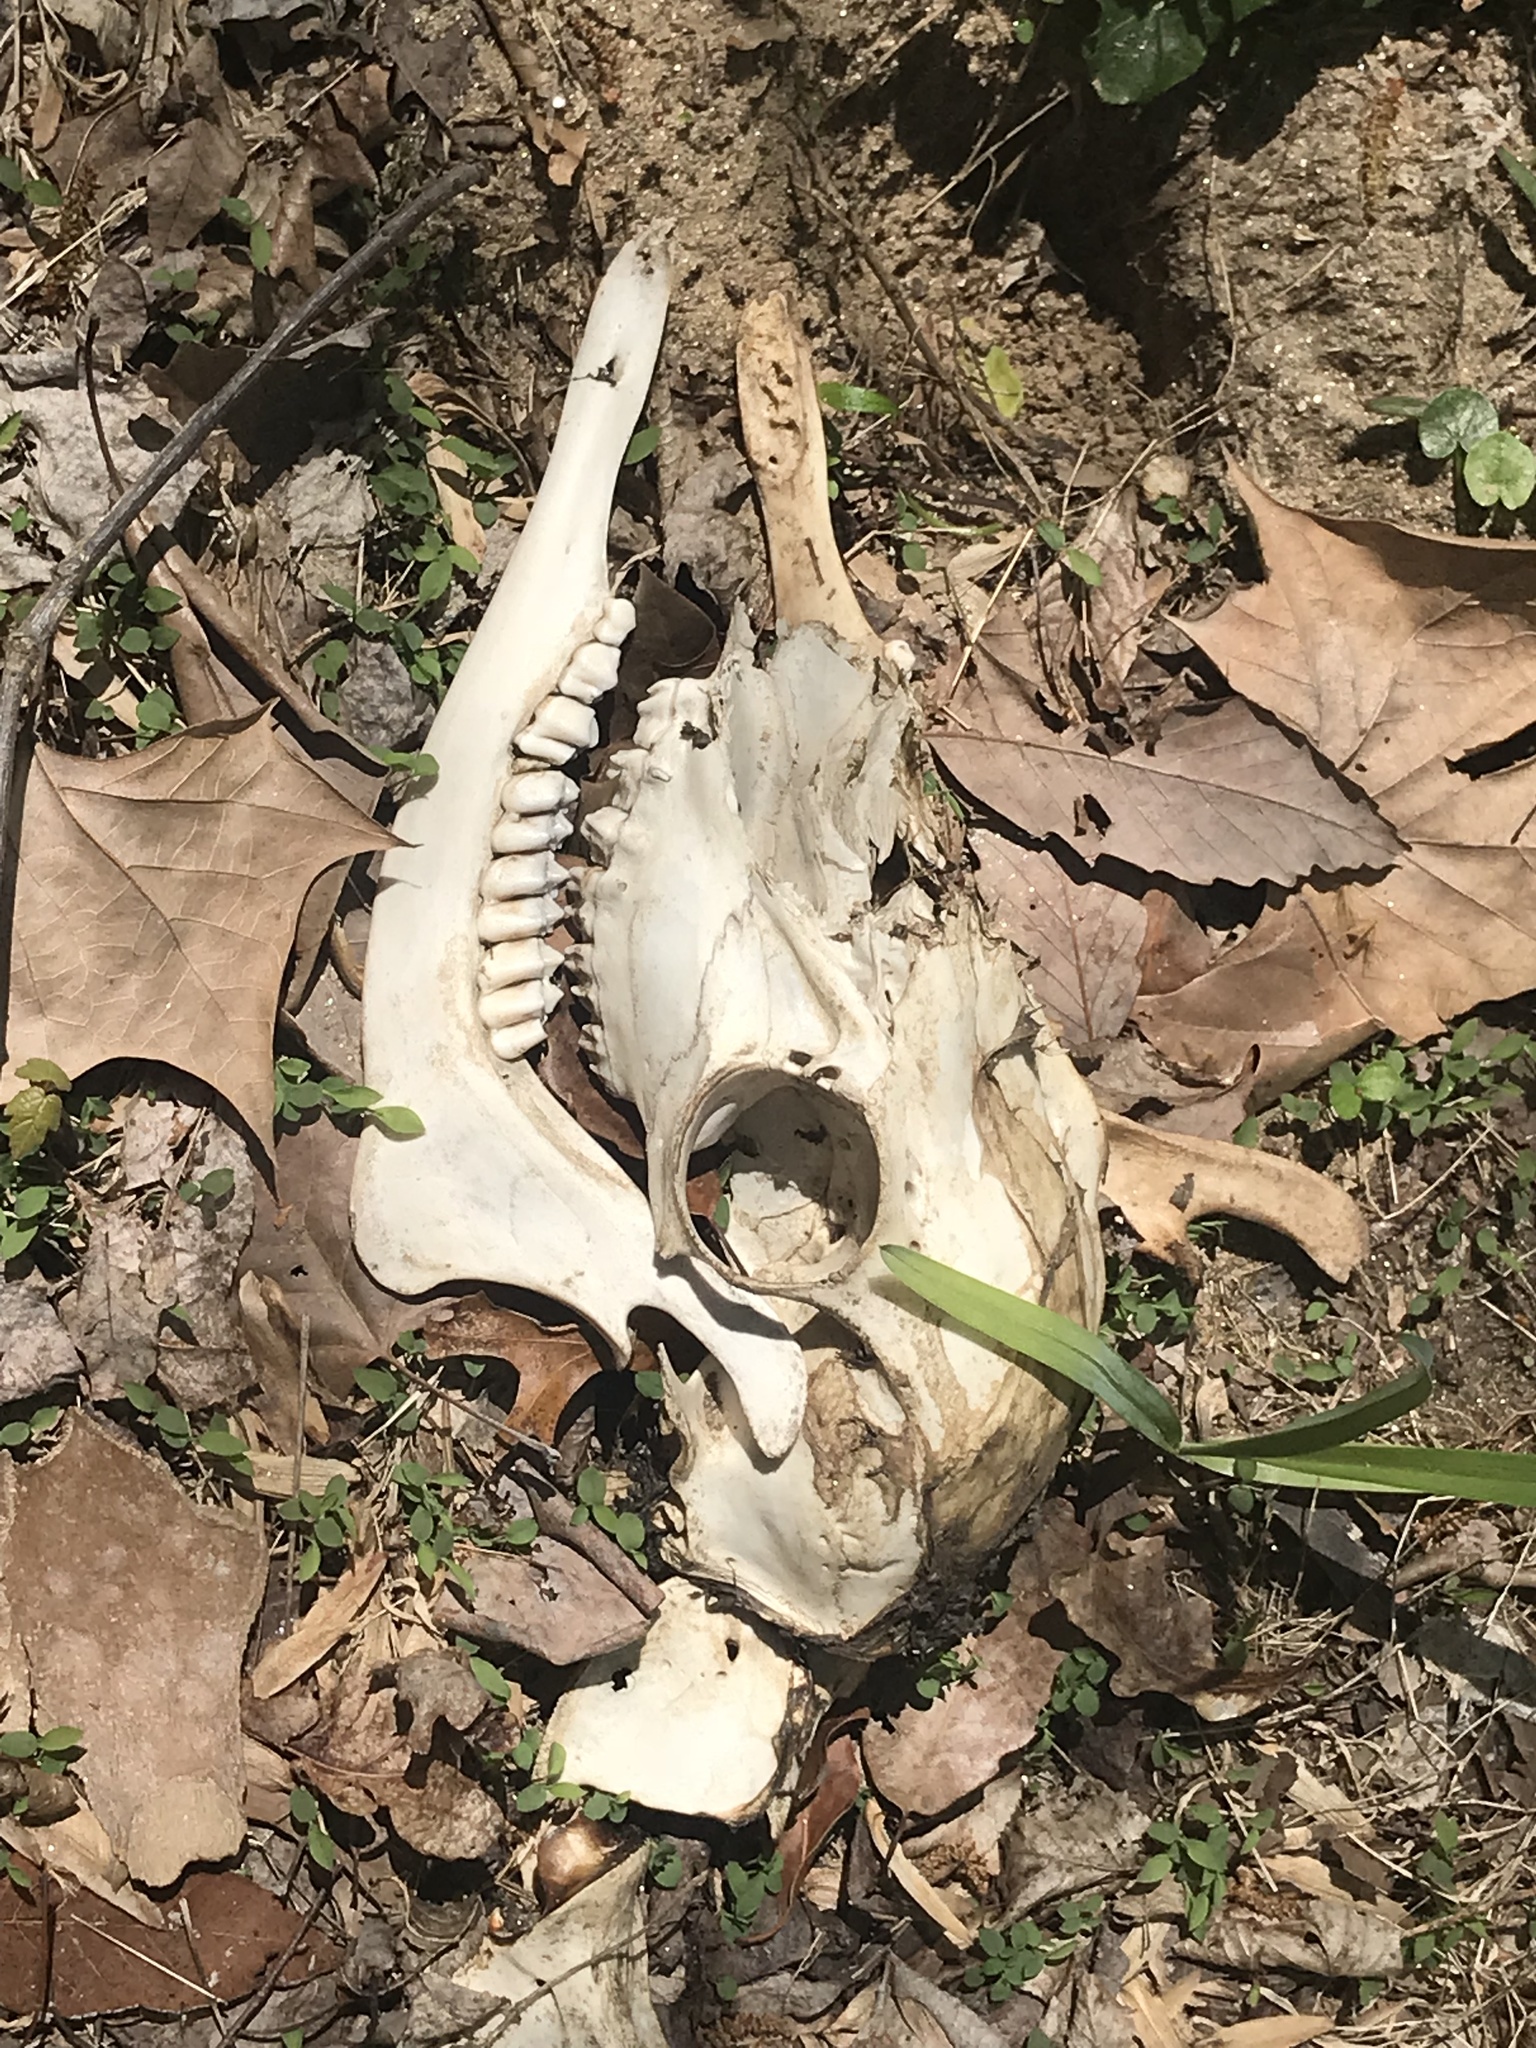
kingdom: Animalia
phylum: Chordata
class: Mammalia
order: Artiodactyla
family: Cervidae
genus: Odocoileus
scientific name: Odocoileus virginianus
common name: White-tailed deer
